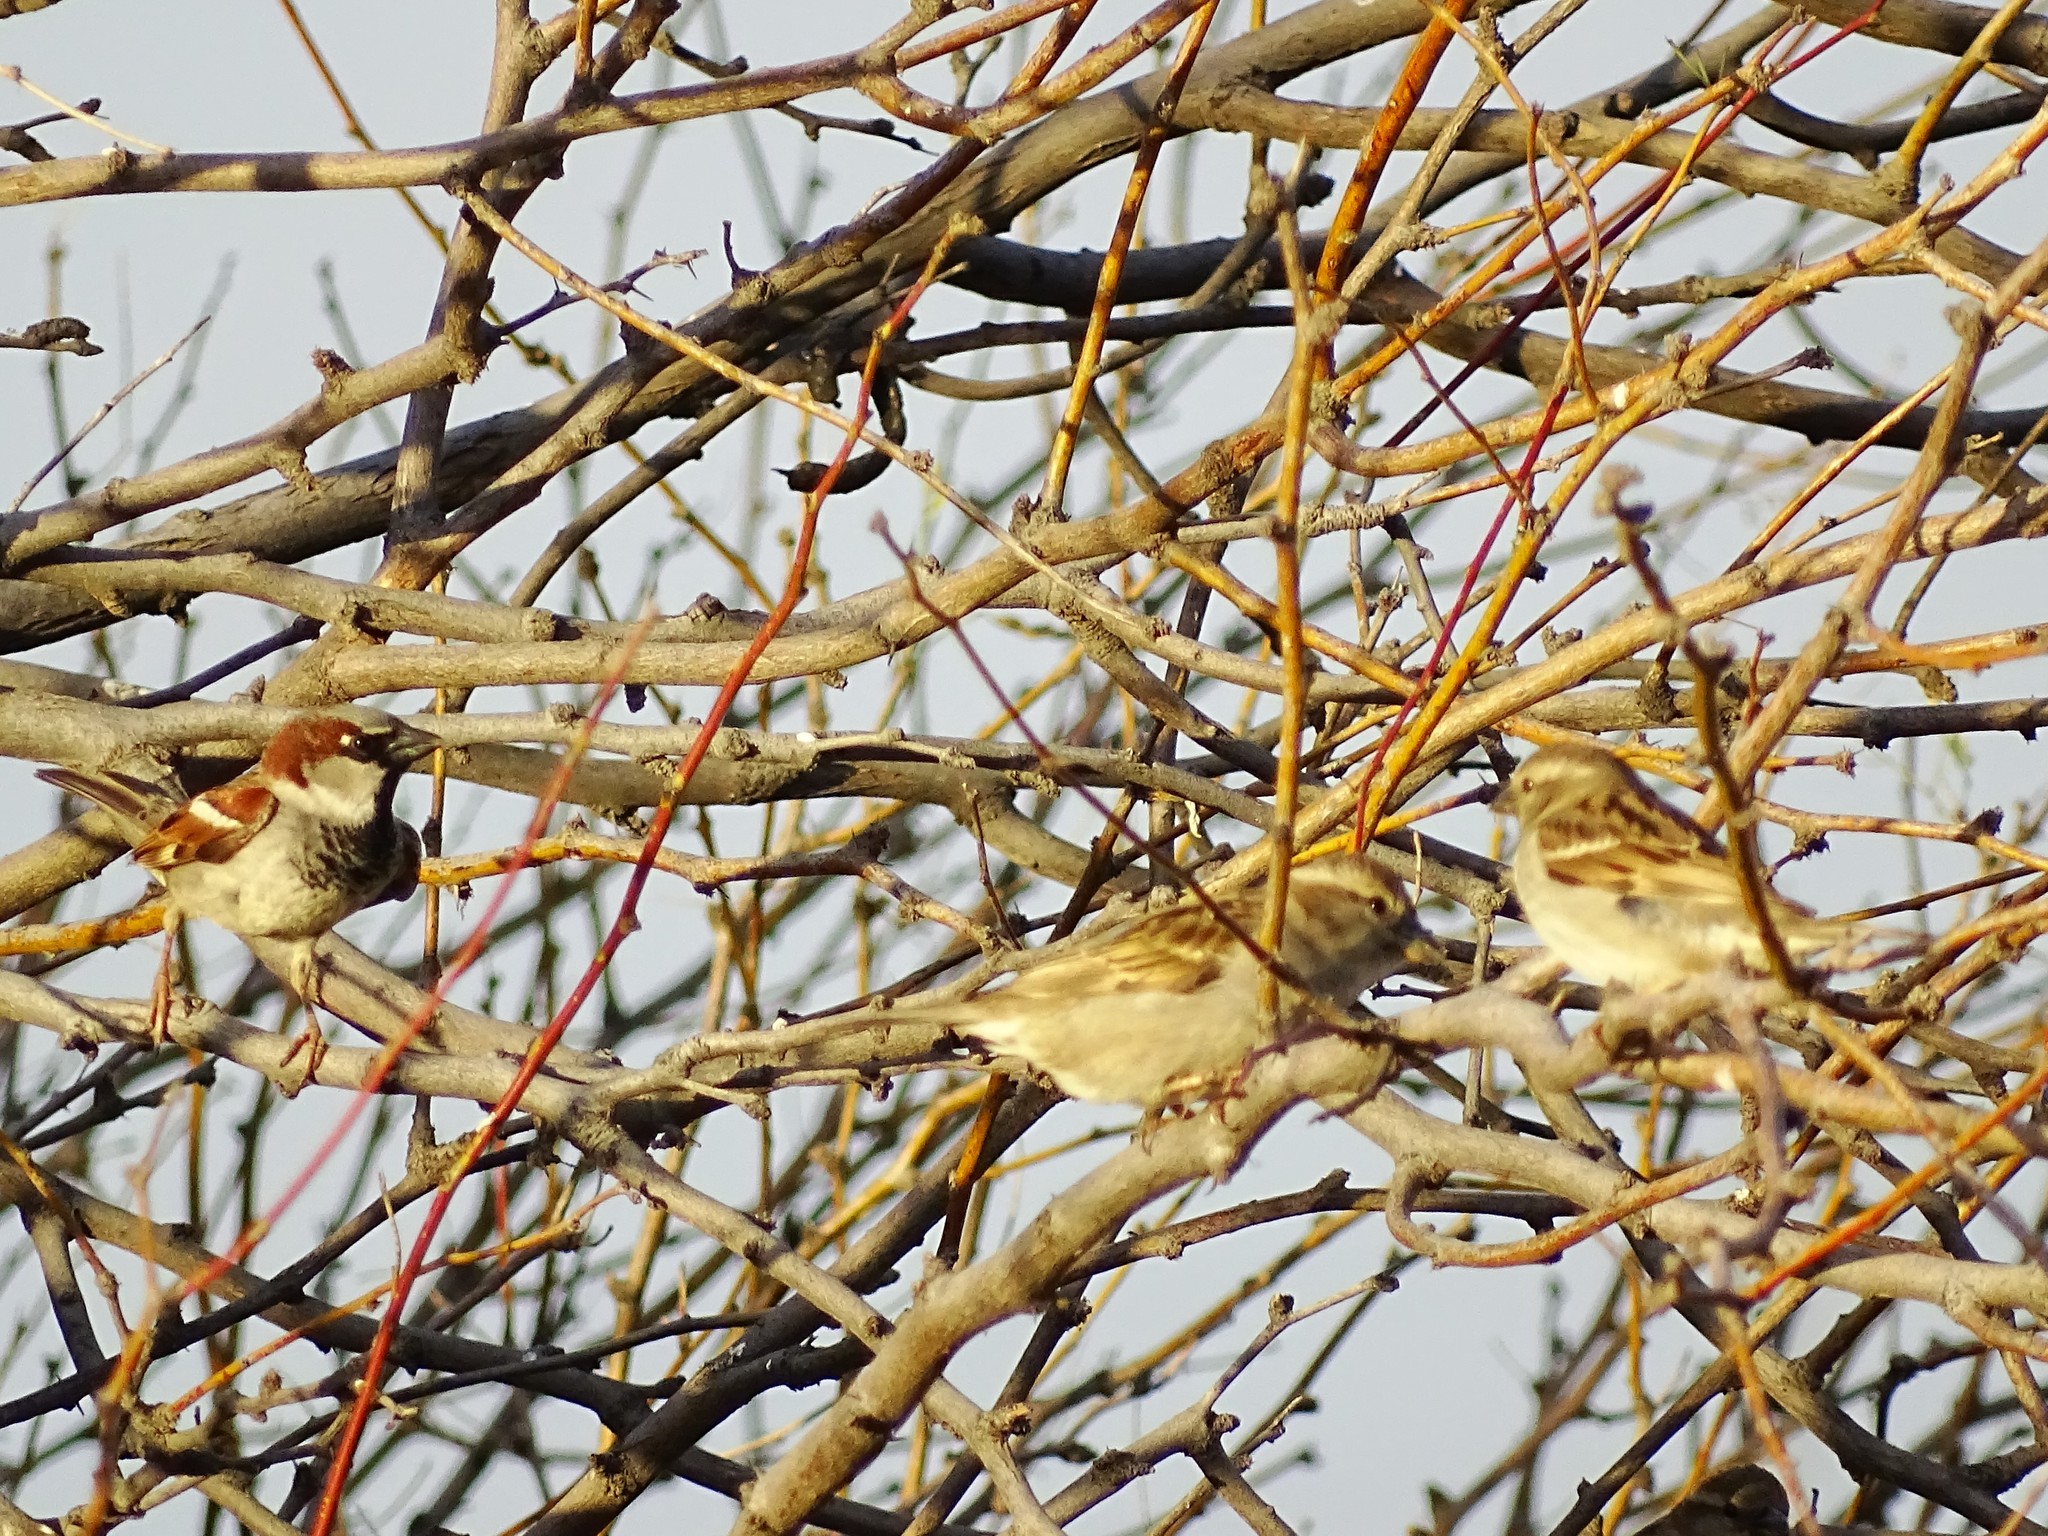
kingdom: Animalia
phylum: Chordata
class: Aves
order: Passeriformes
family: Passeridae
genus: Passer
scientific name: Passer domesticus
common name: House sparrow
